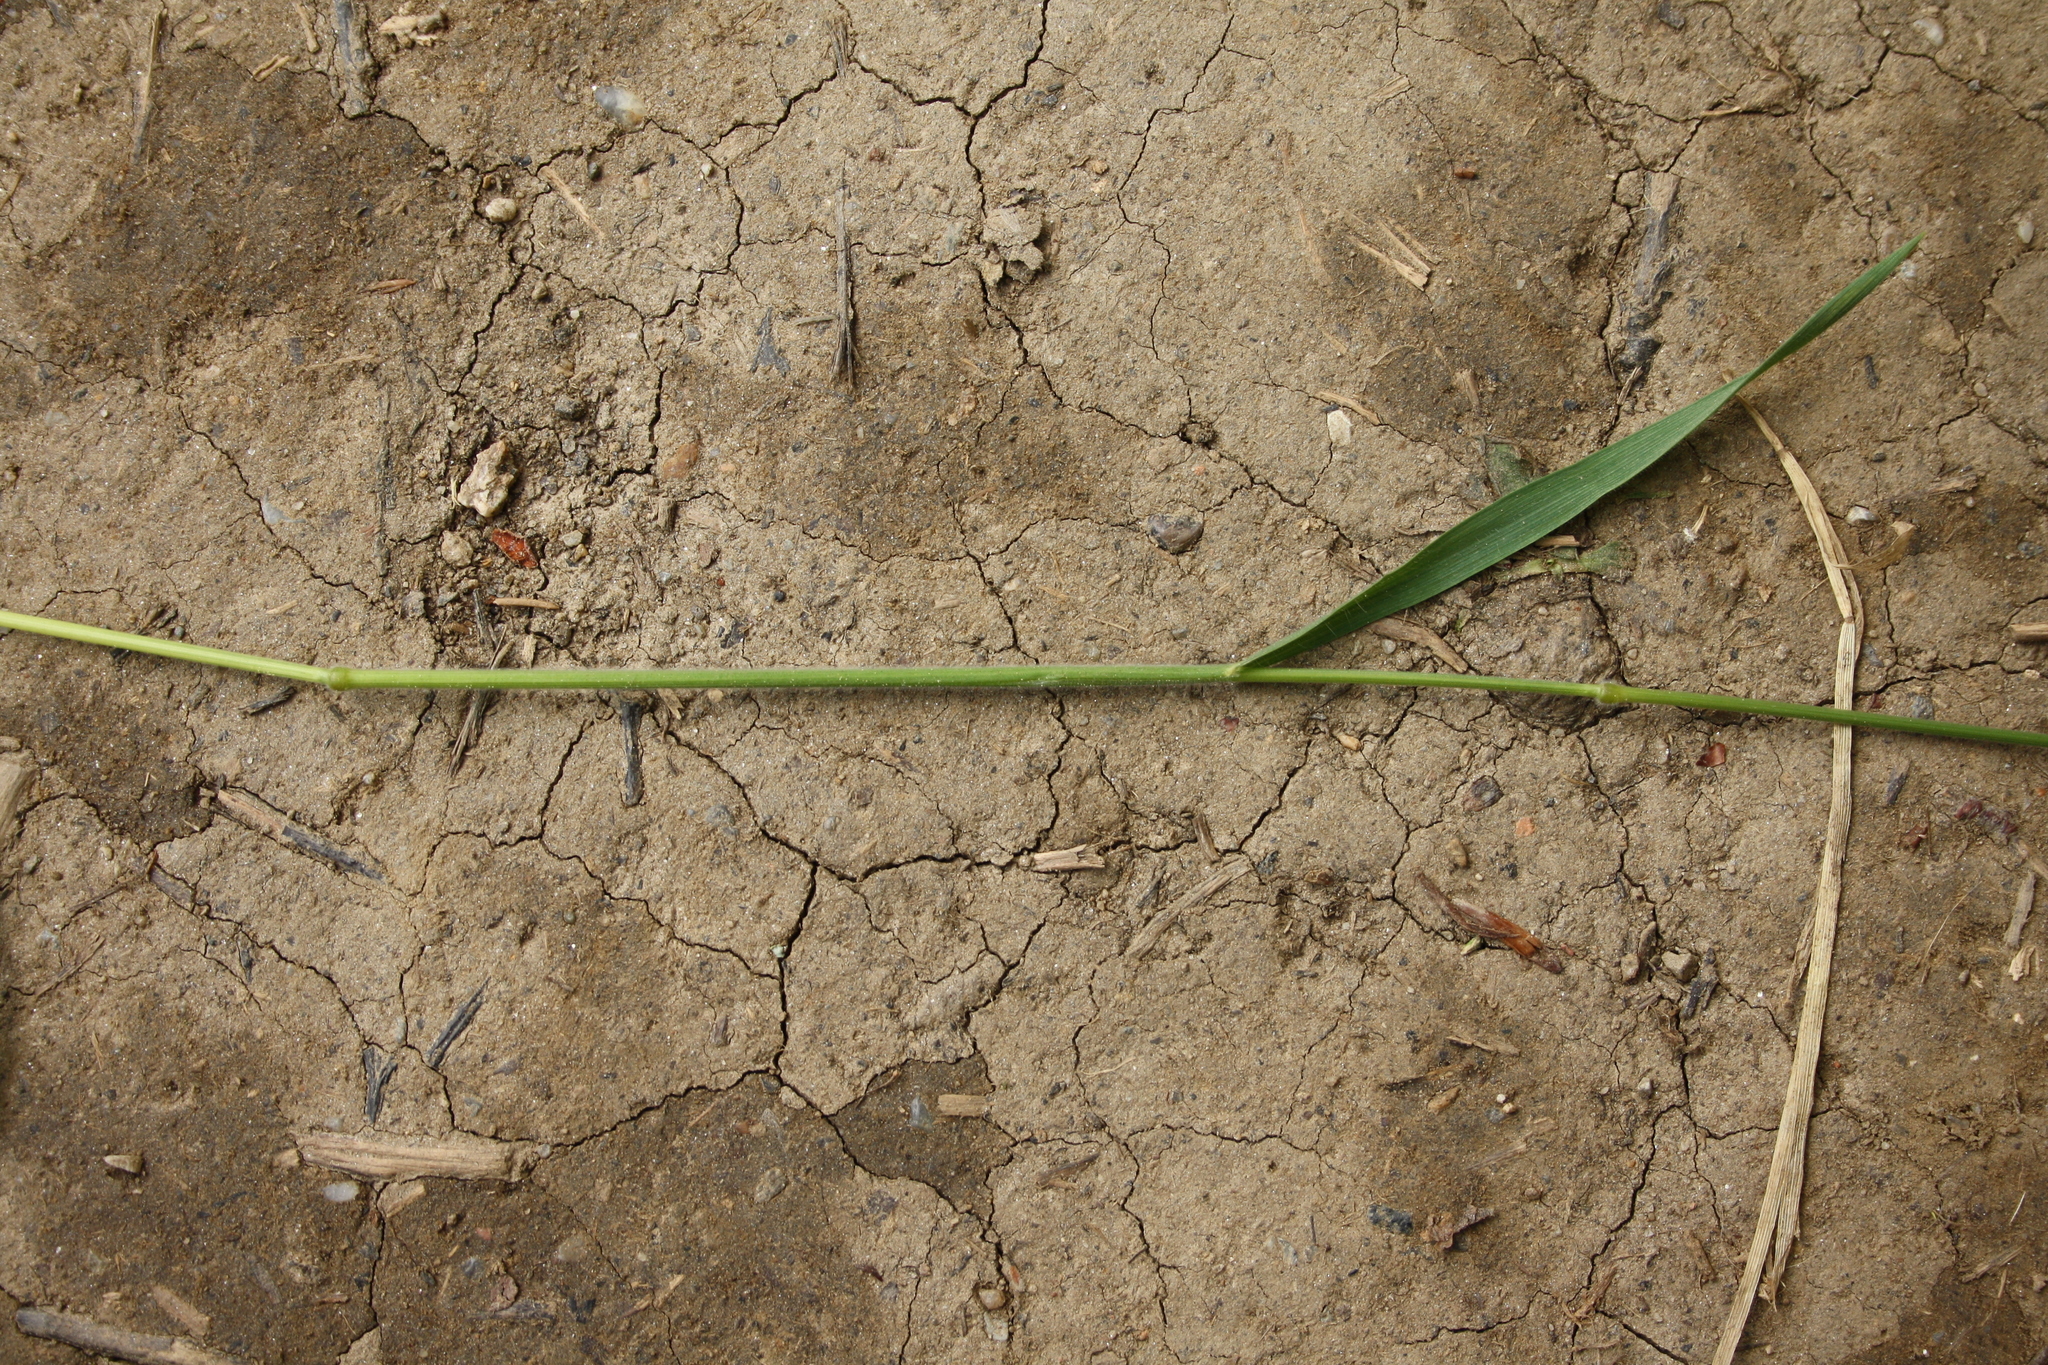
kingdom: Plantae
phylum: Tracheophyta
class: Liliopsida
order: Poales
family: Poaceae
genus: Bromus
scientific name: Bromus hordeaceus
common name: Soft brome
